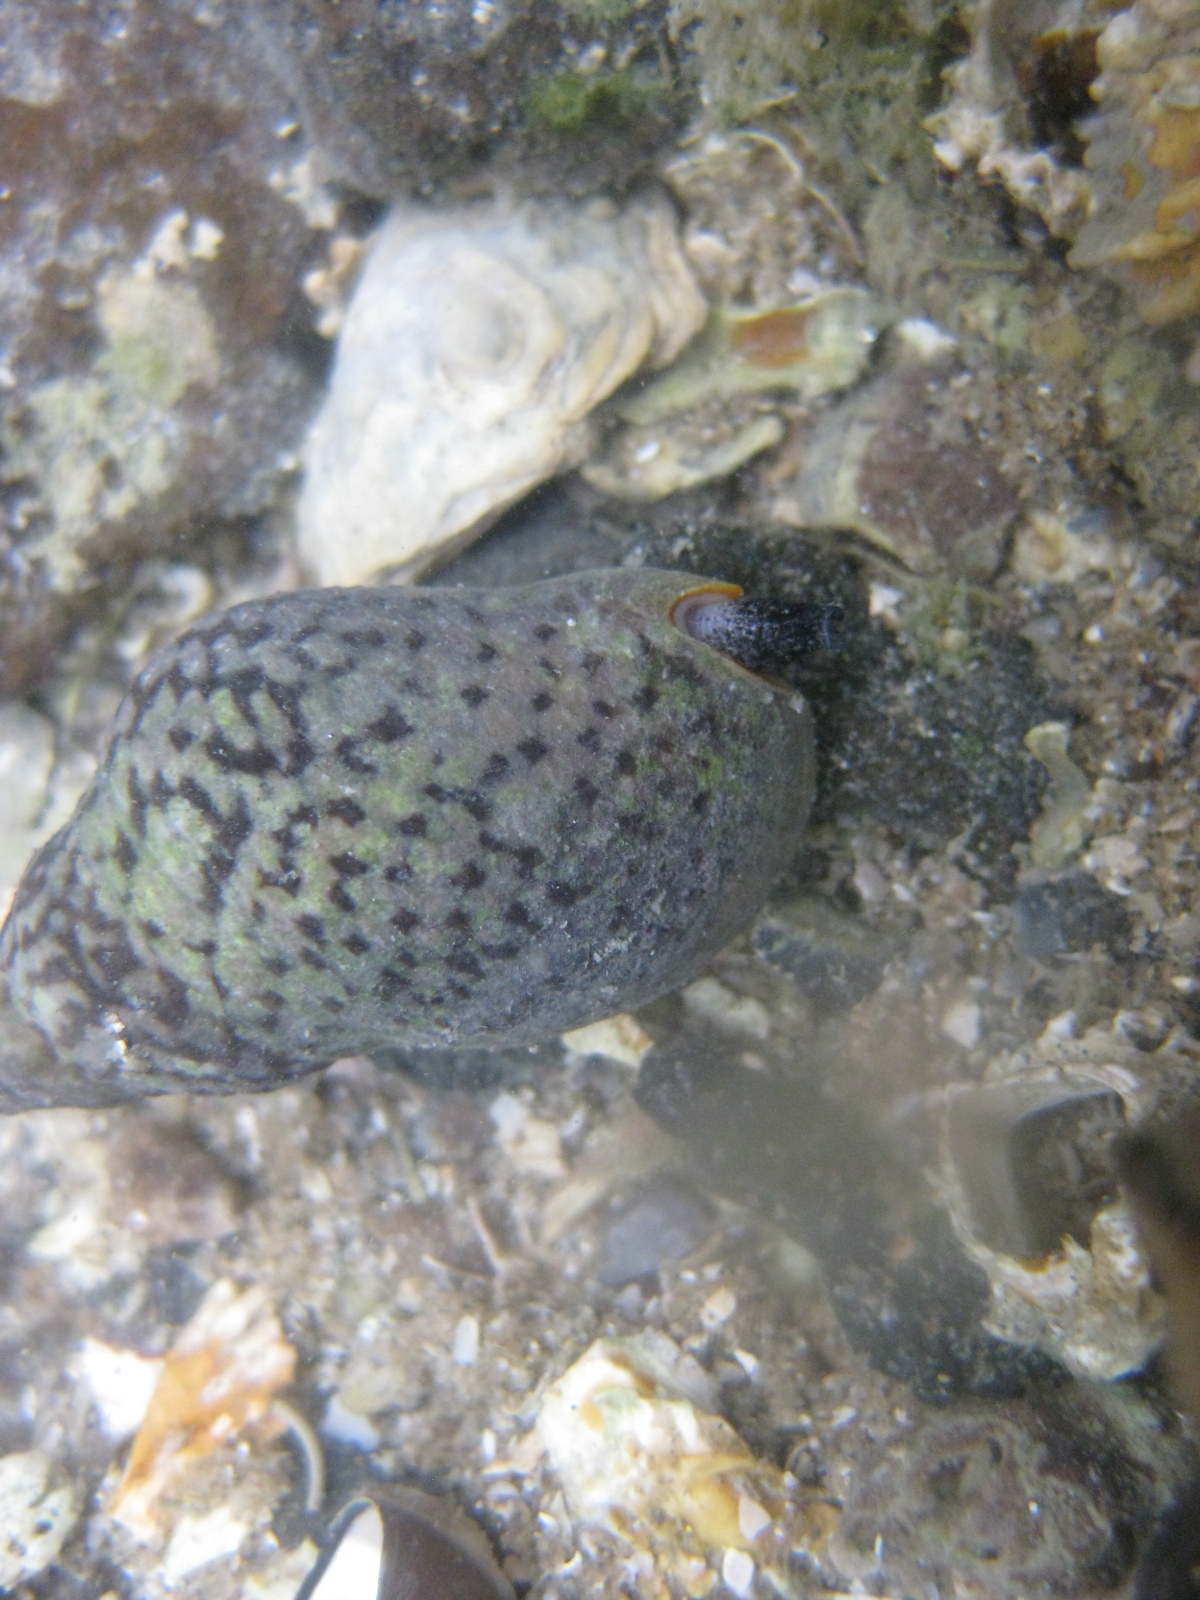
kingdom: Animalia
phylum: Mollusca
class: Gastropoda
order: Neogastropoda
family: Cominellidae
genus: Cominella
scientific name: Cominella maculosa
